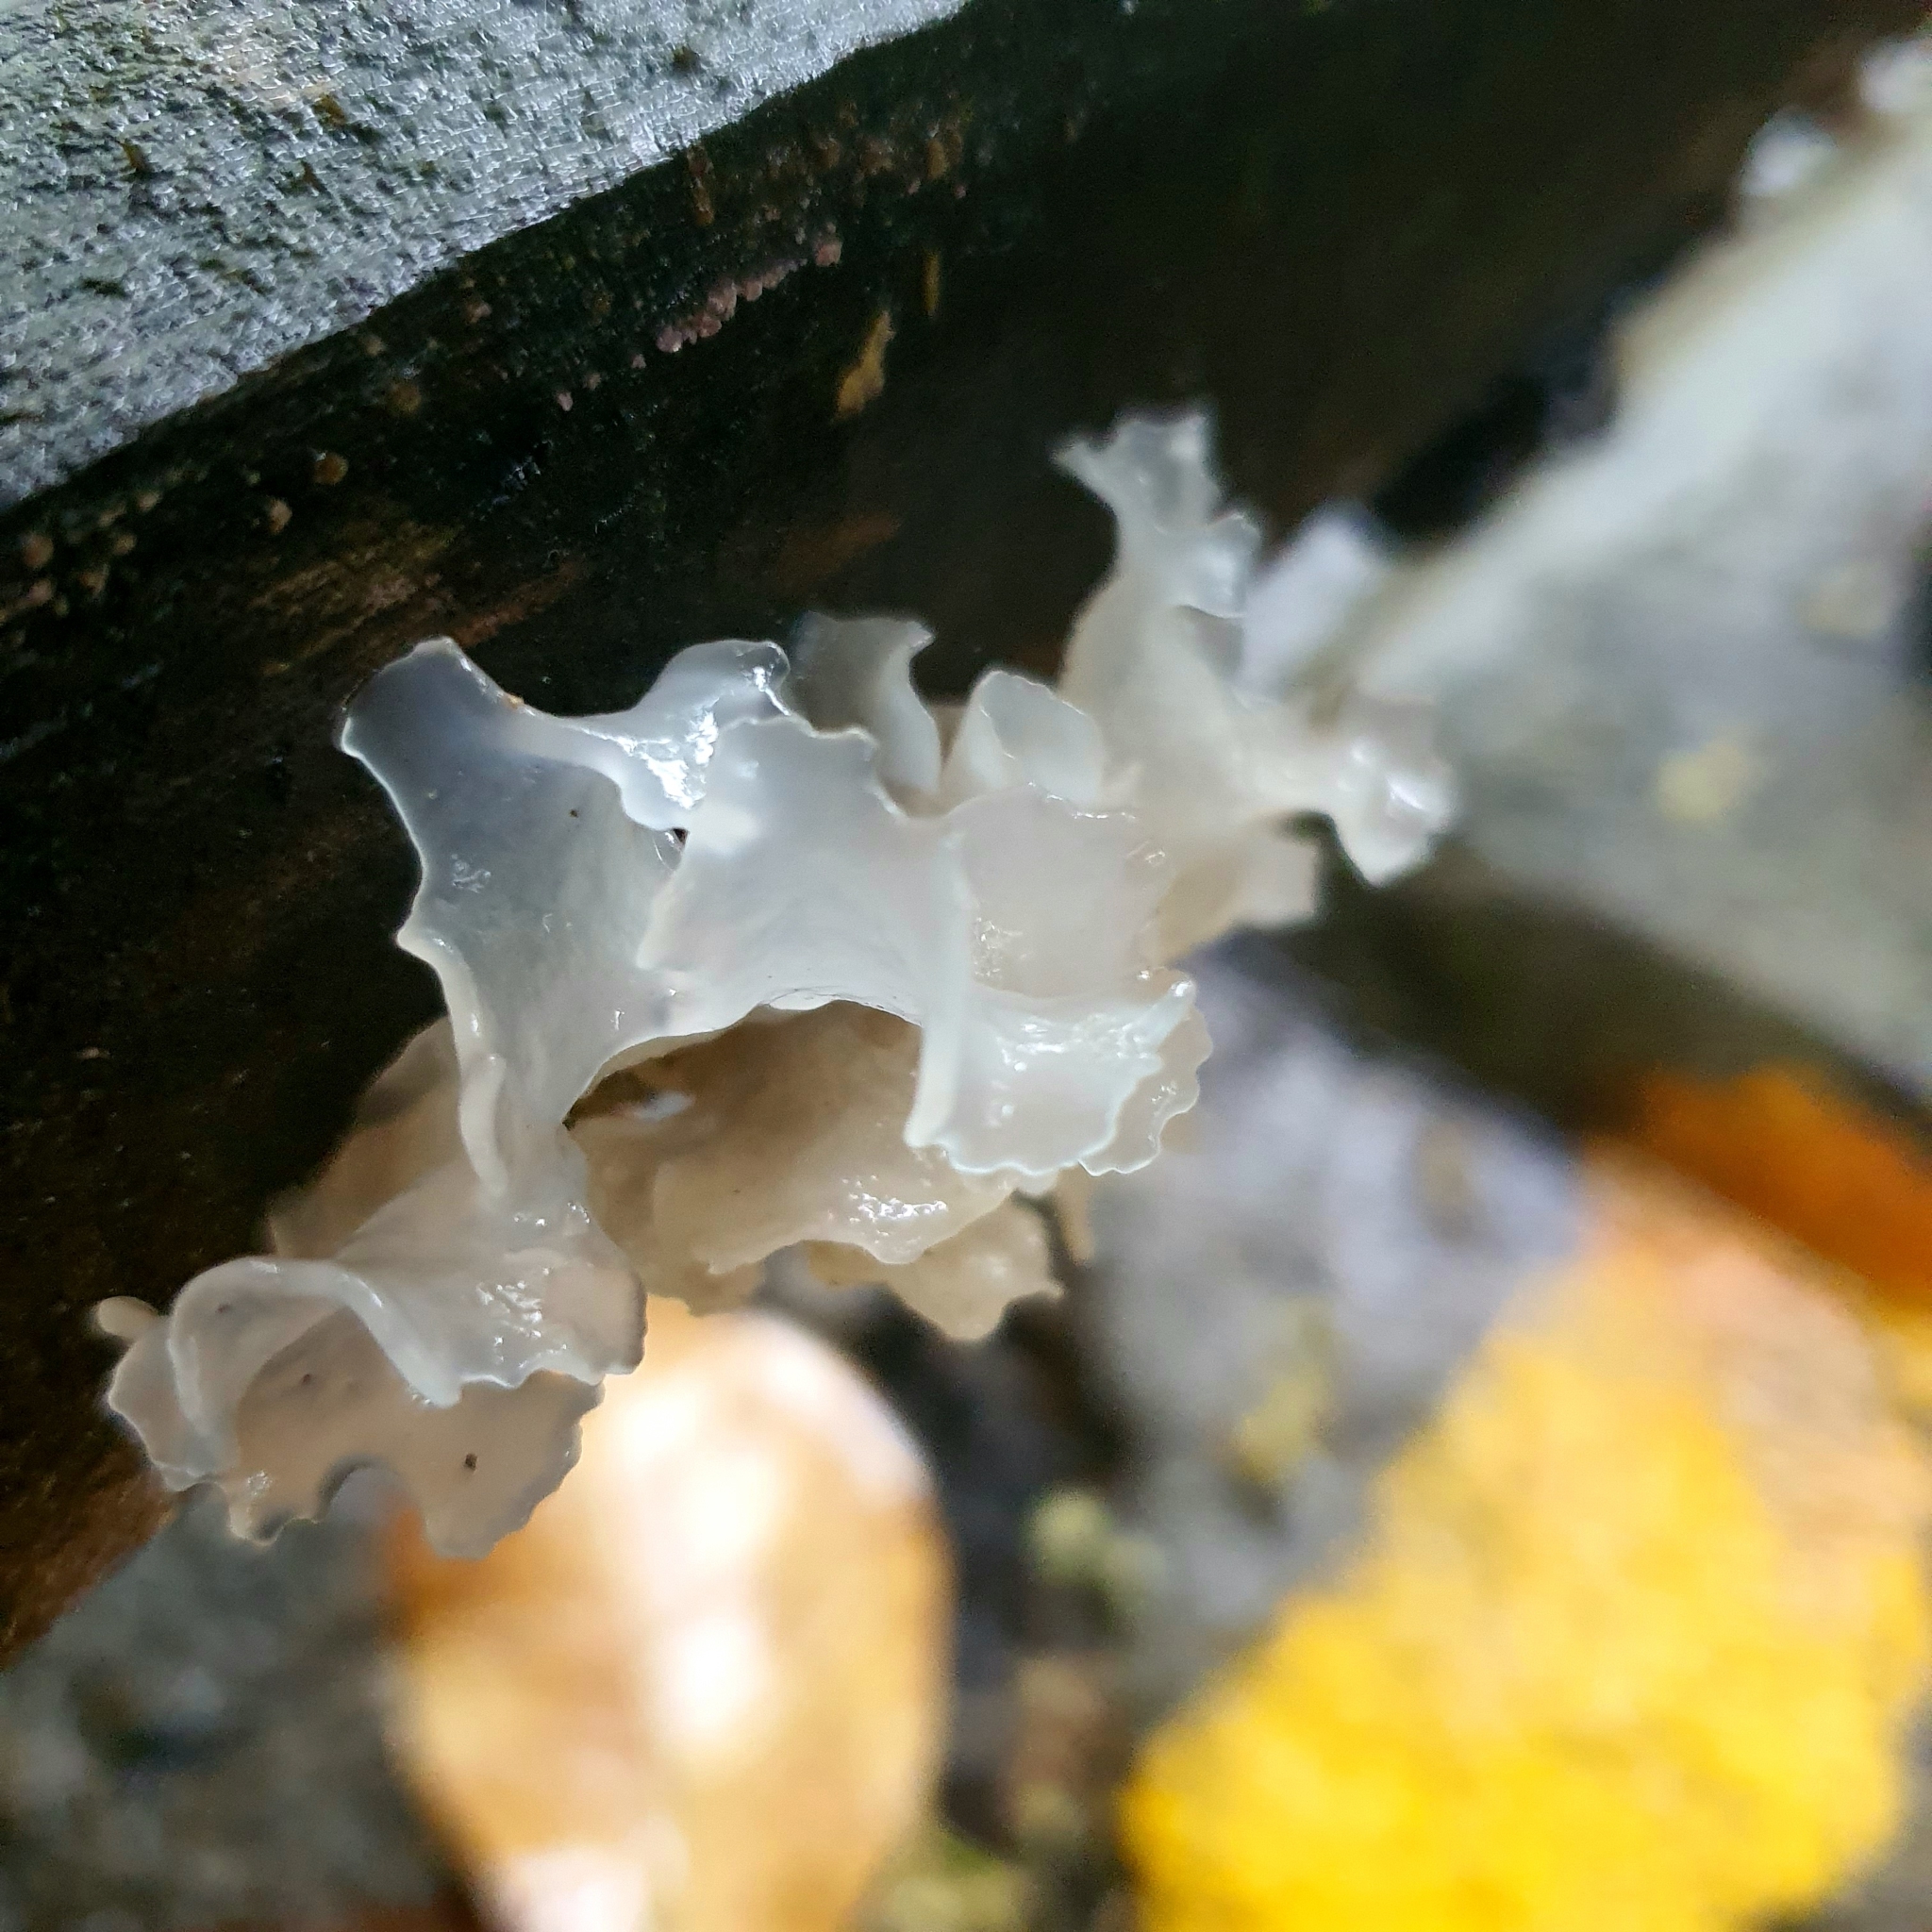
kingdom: Fungi
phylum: Basidiomycota
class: Tremellomycetes
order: Tremellales
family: Tremellaceae
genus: Tremella
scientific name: Tremella fuciformis
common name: Snow fungus
